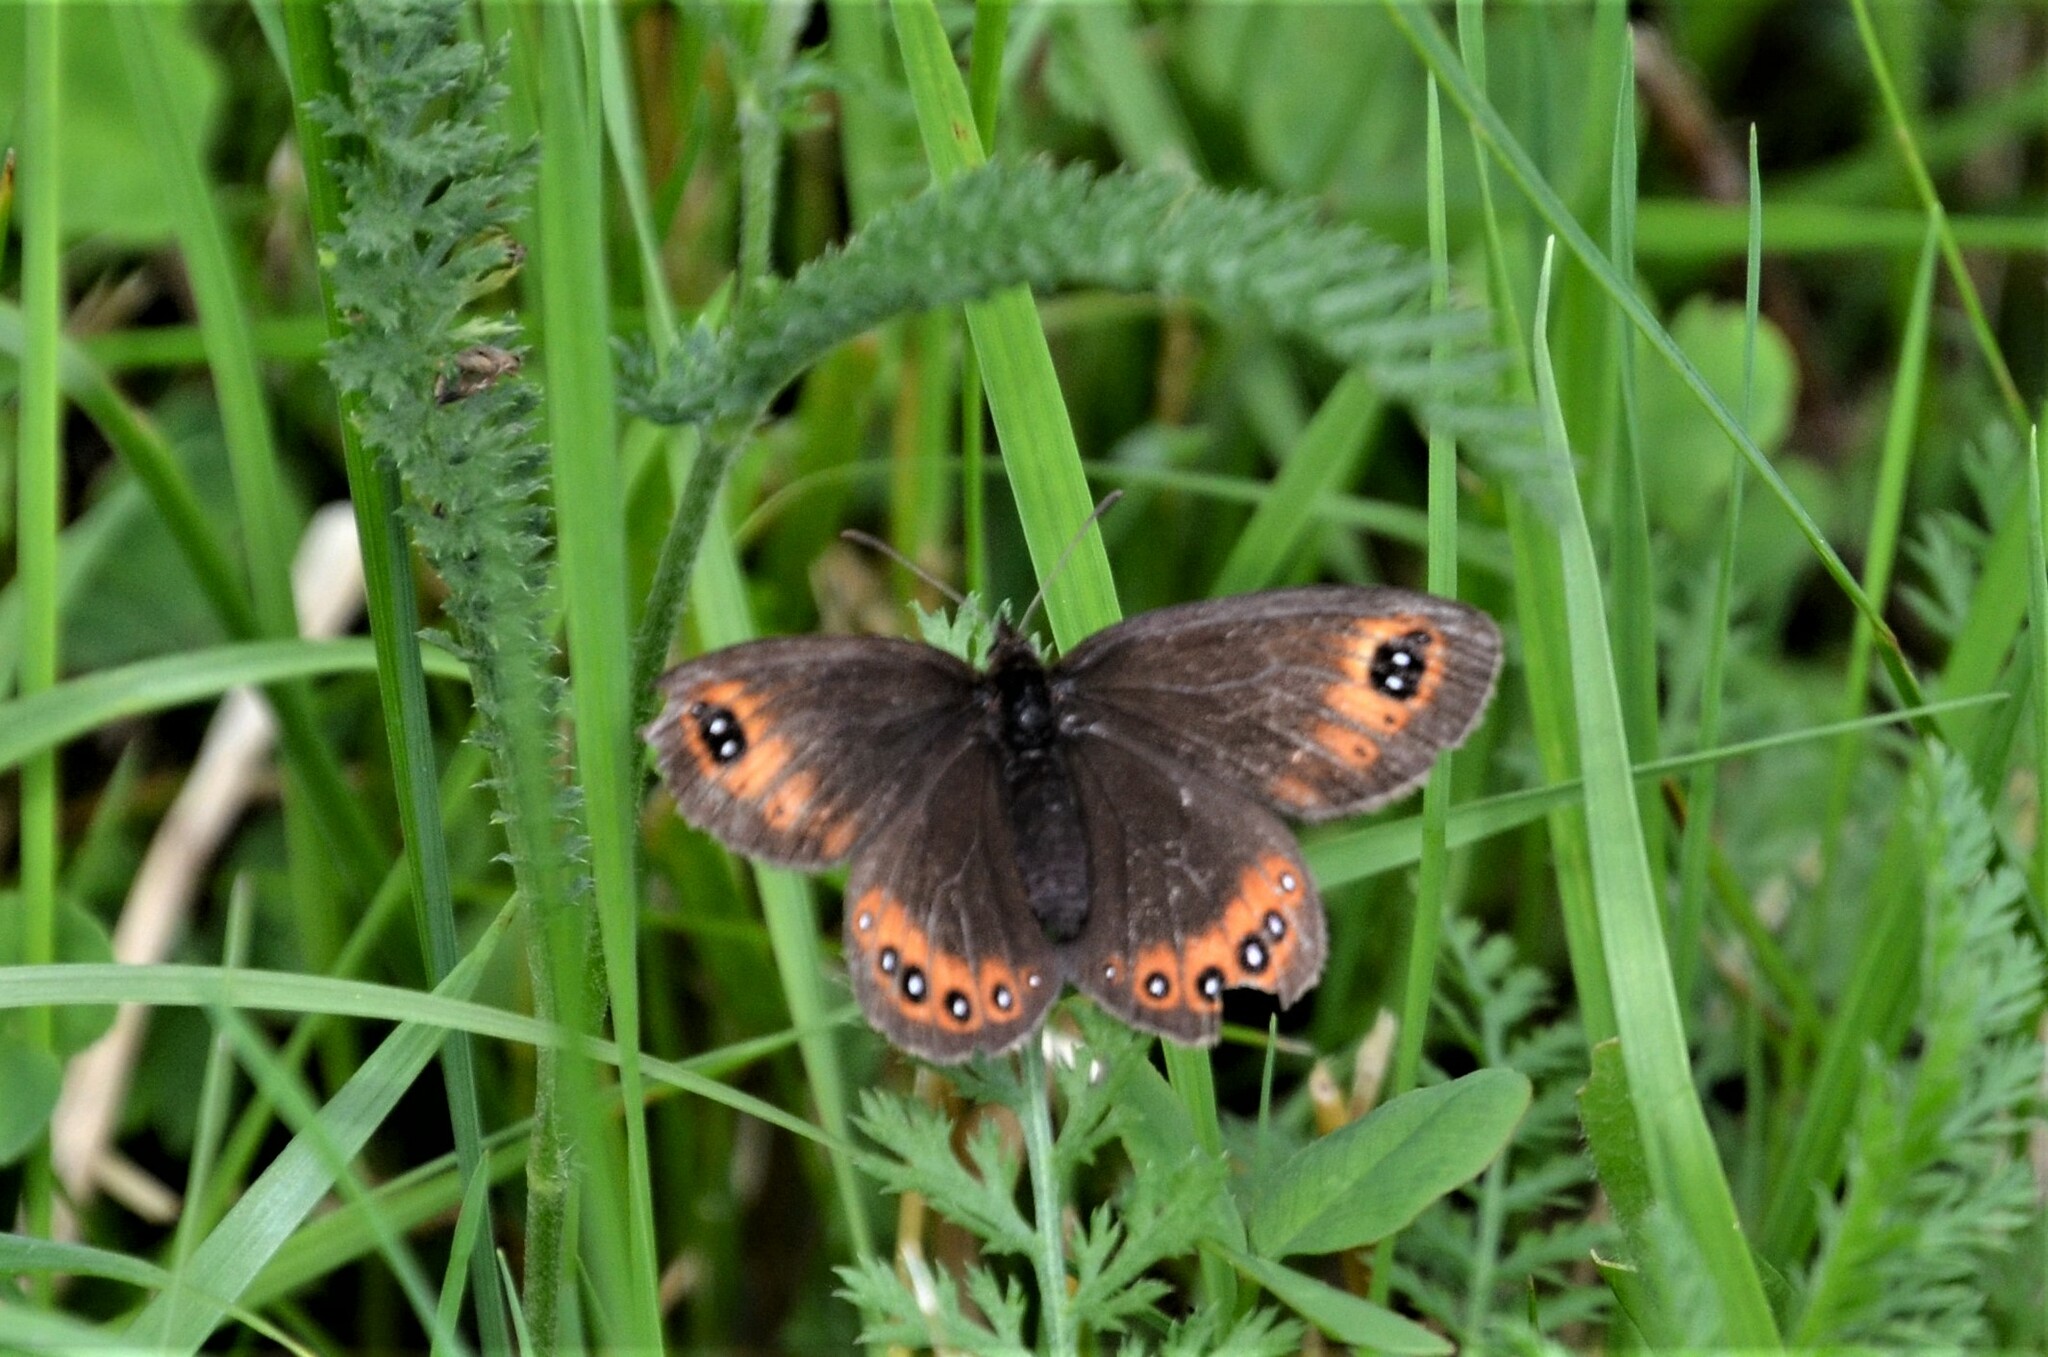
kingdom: Animalia
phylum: Arthropoda
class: Insecta
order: Lepidoptera
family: Nymphalidae
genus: Erebia
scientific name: Erebia oeme
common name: Bright-eyed ringlet
